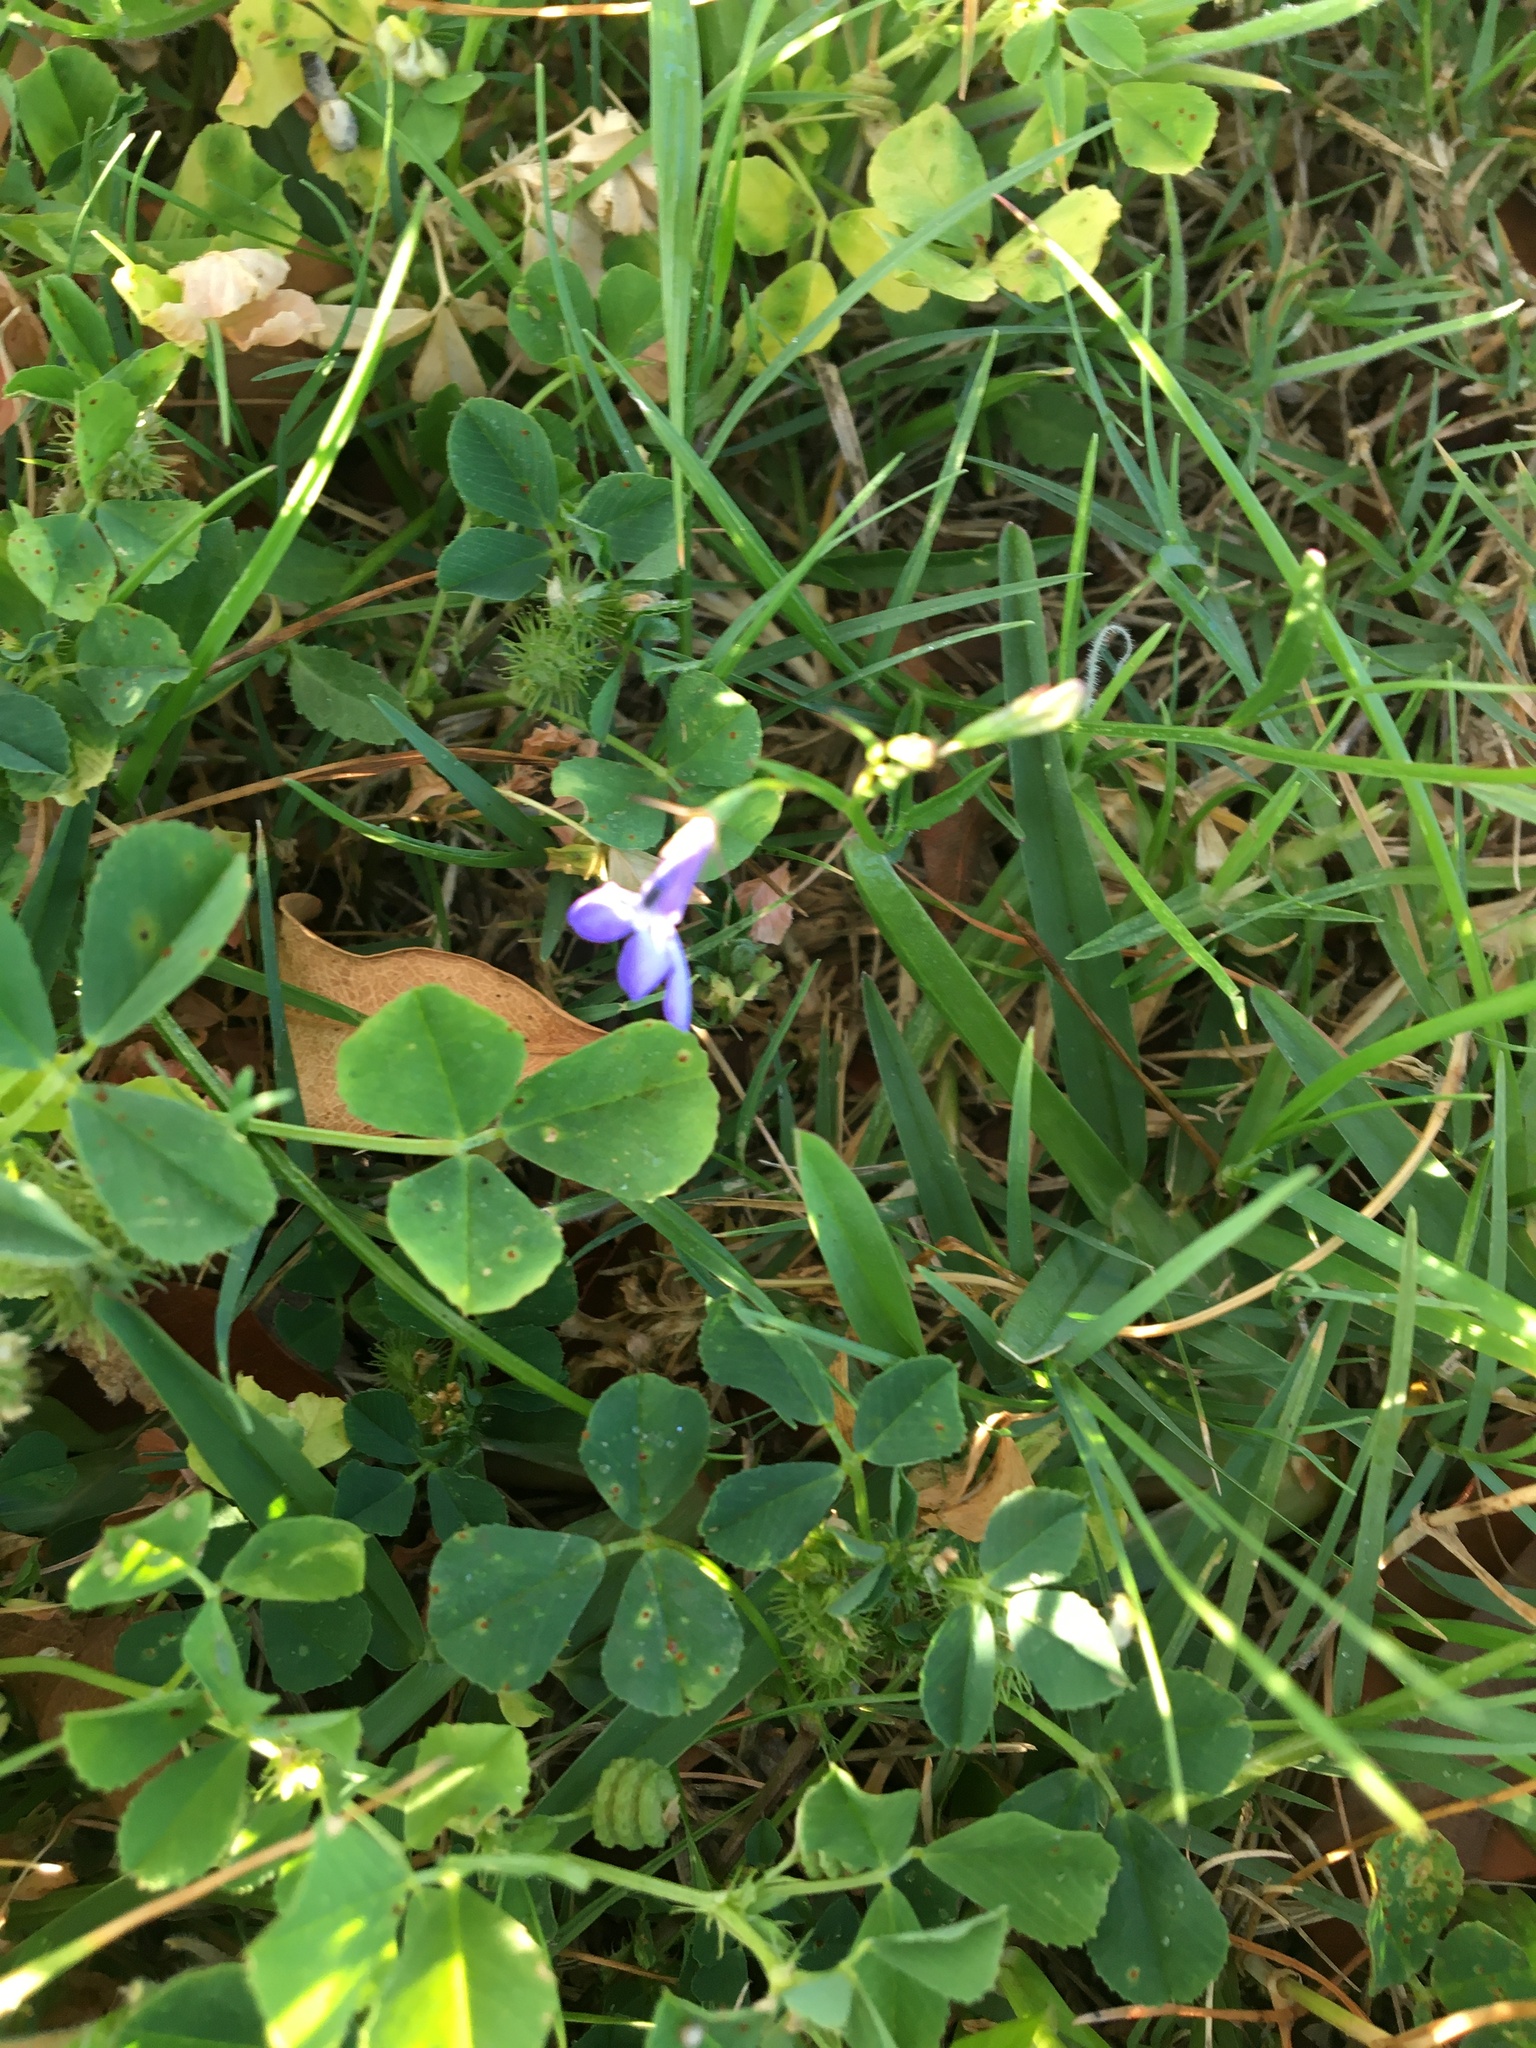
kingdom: Plantae
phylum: Tracheophyta
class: Magnoliopsida
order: Asterales
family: Campanulaceae
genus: Lobelia
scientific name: Lobelia erinus
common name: Edging lobelia
